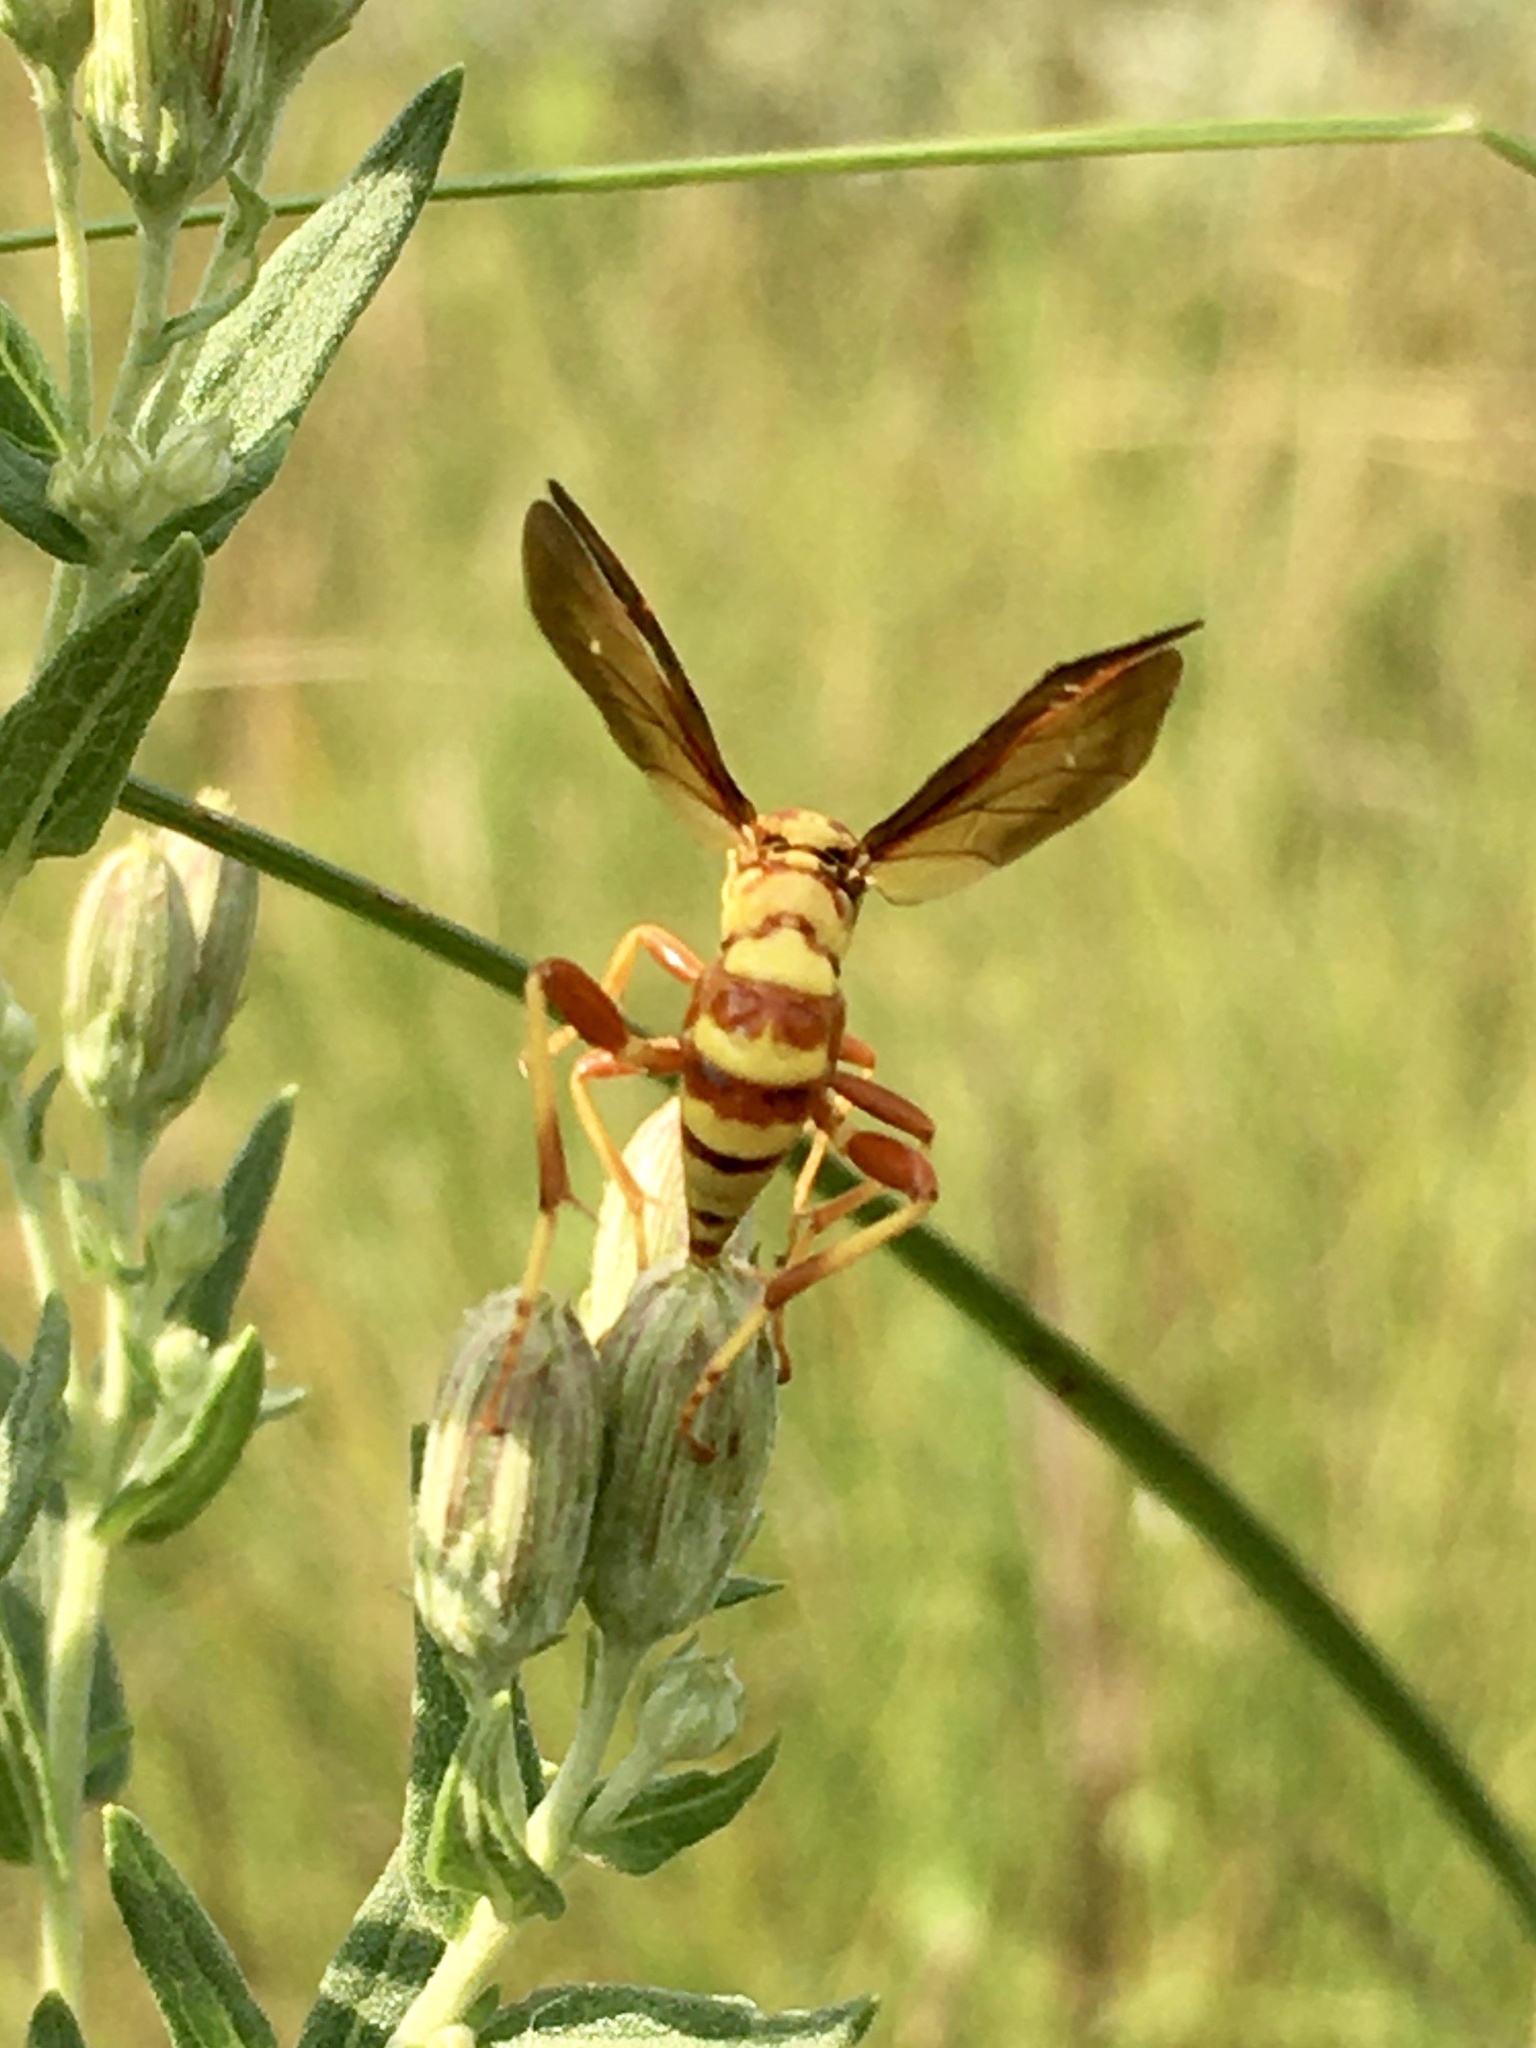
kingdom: Animalia
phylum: Arthropoda
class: Insecta
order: Hymenoptera
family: Ichneumonidae
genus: Ceratogastra
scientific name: Ceratogastra ornata
